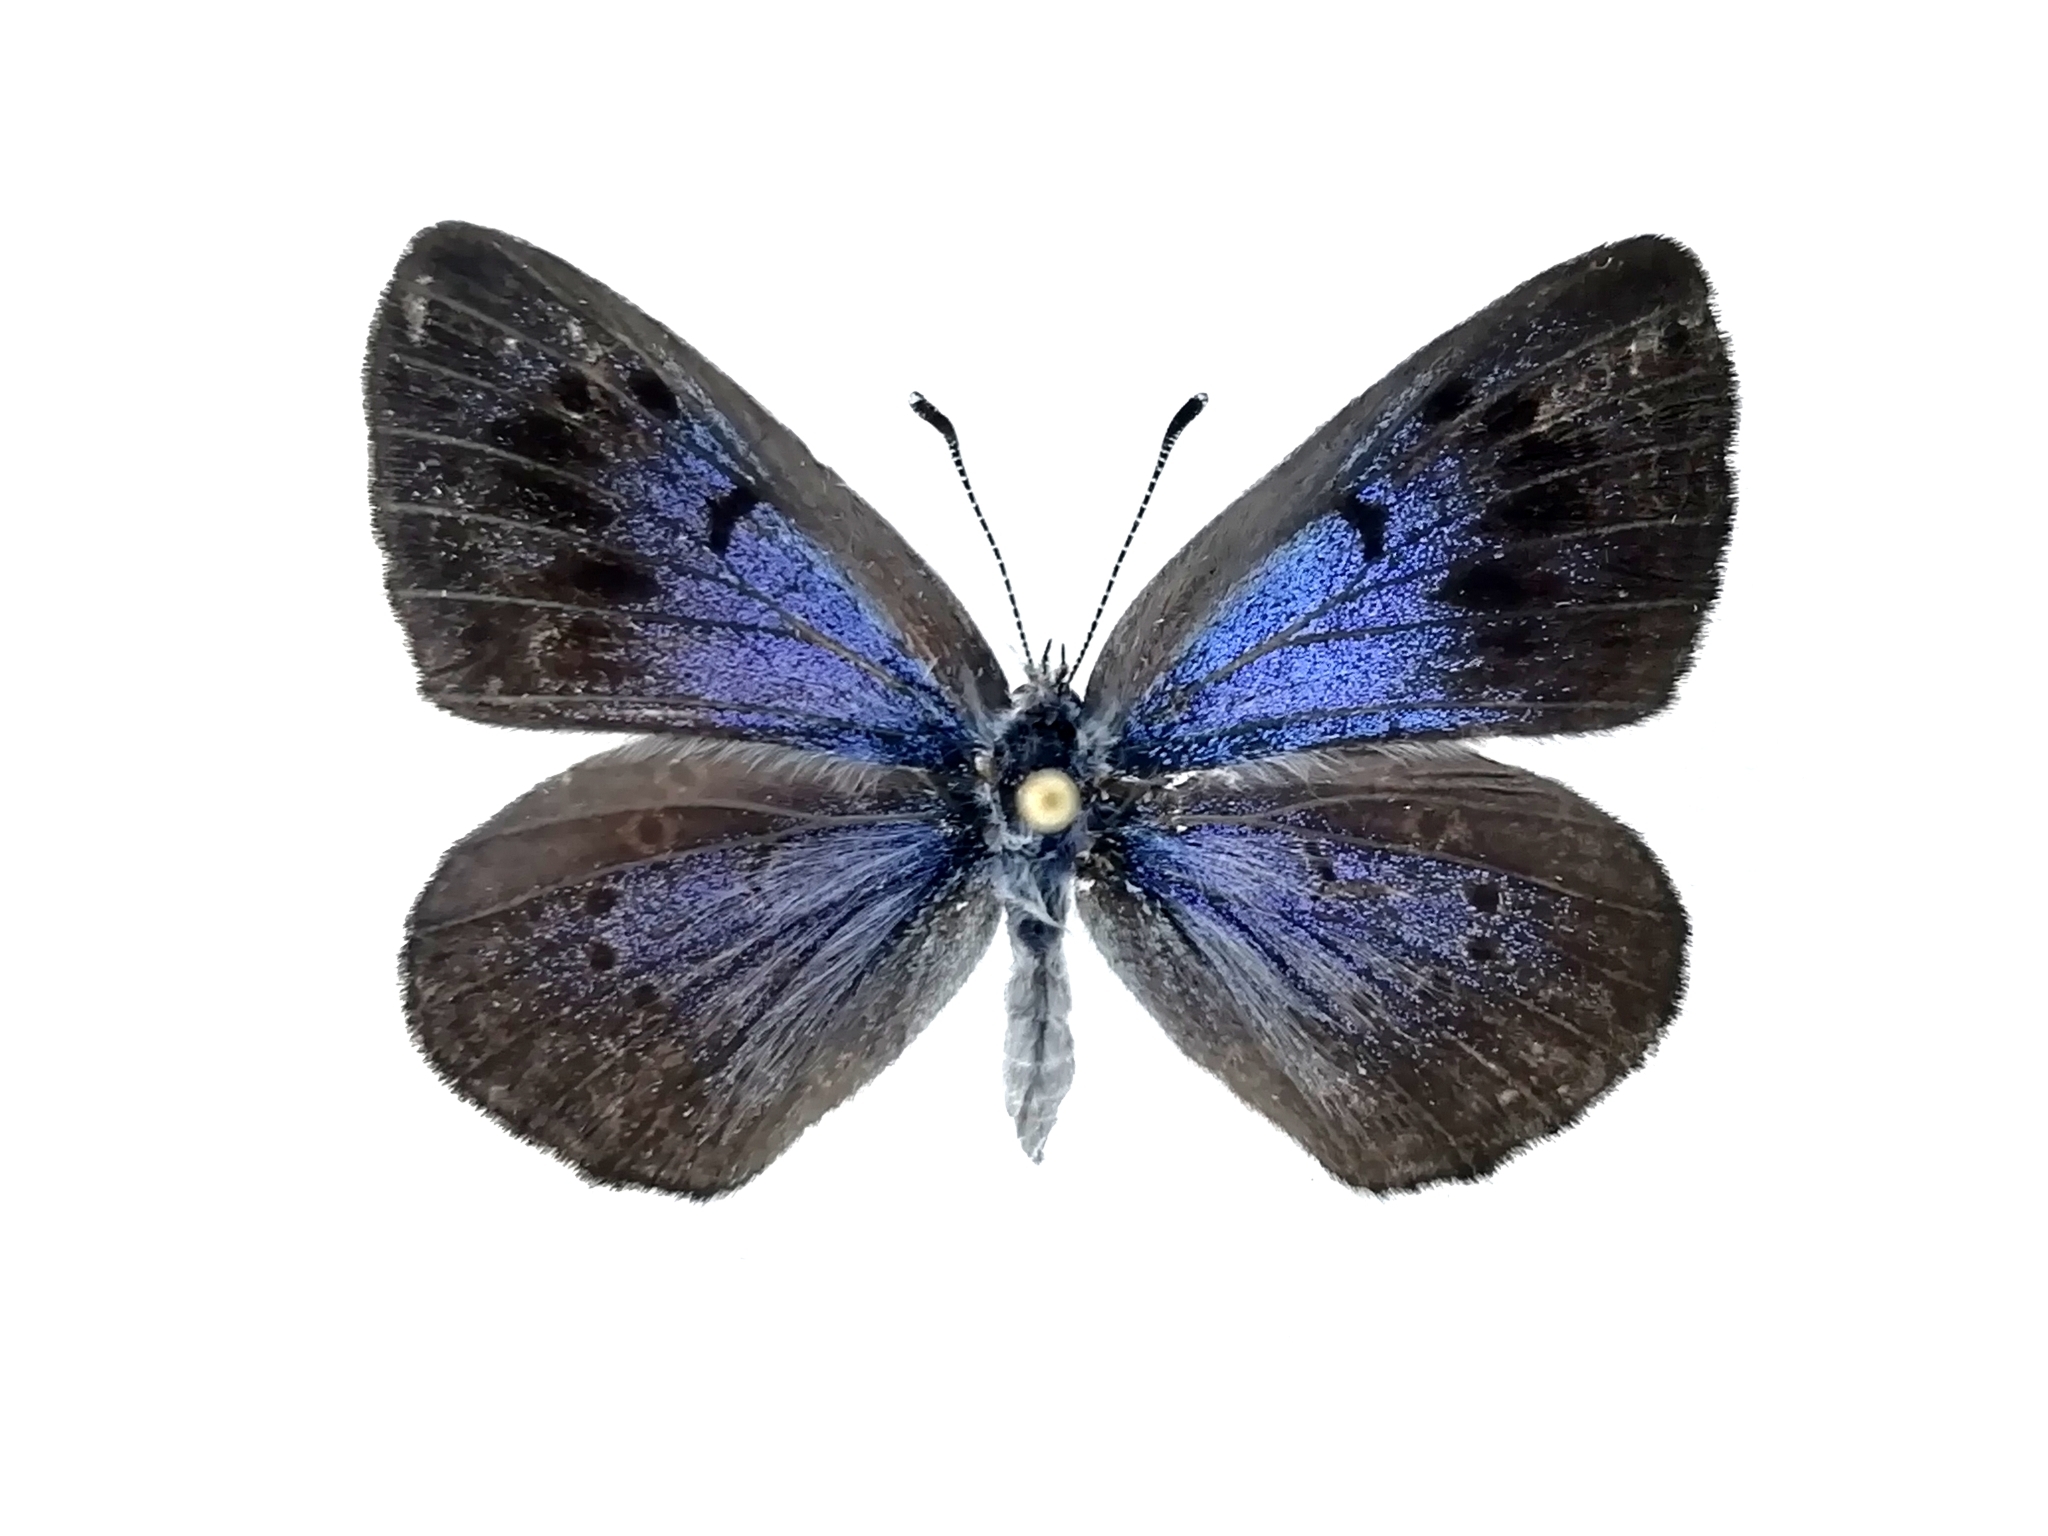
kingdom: Animalia
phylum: Arthropoda
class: Insecta
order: Lepidoptera
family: Lycaenidae
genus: Maculinea
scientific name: Maculinea arion
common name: Large blue
